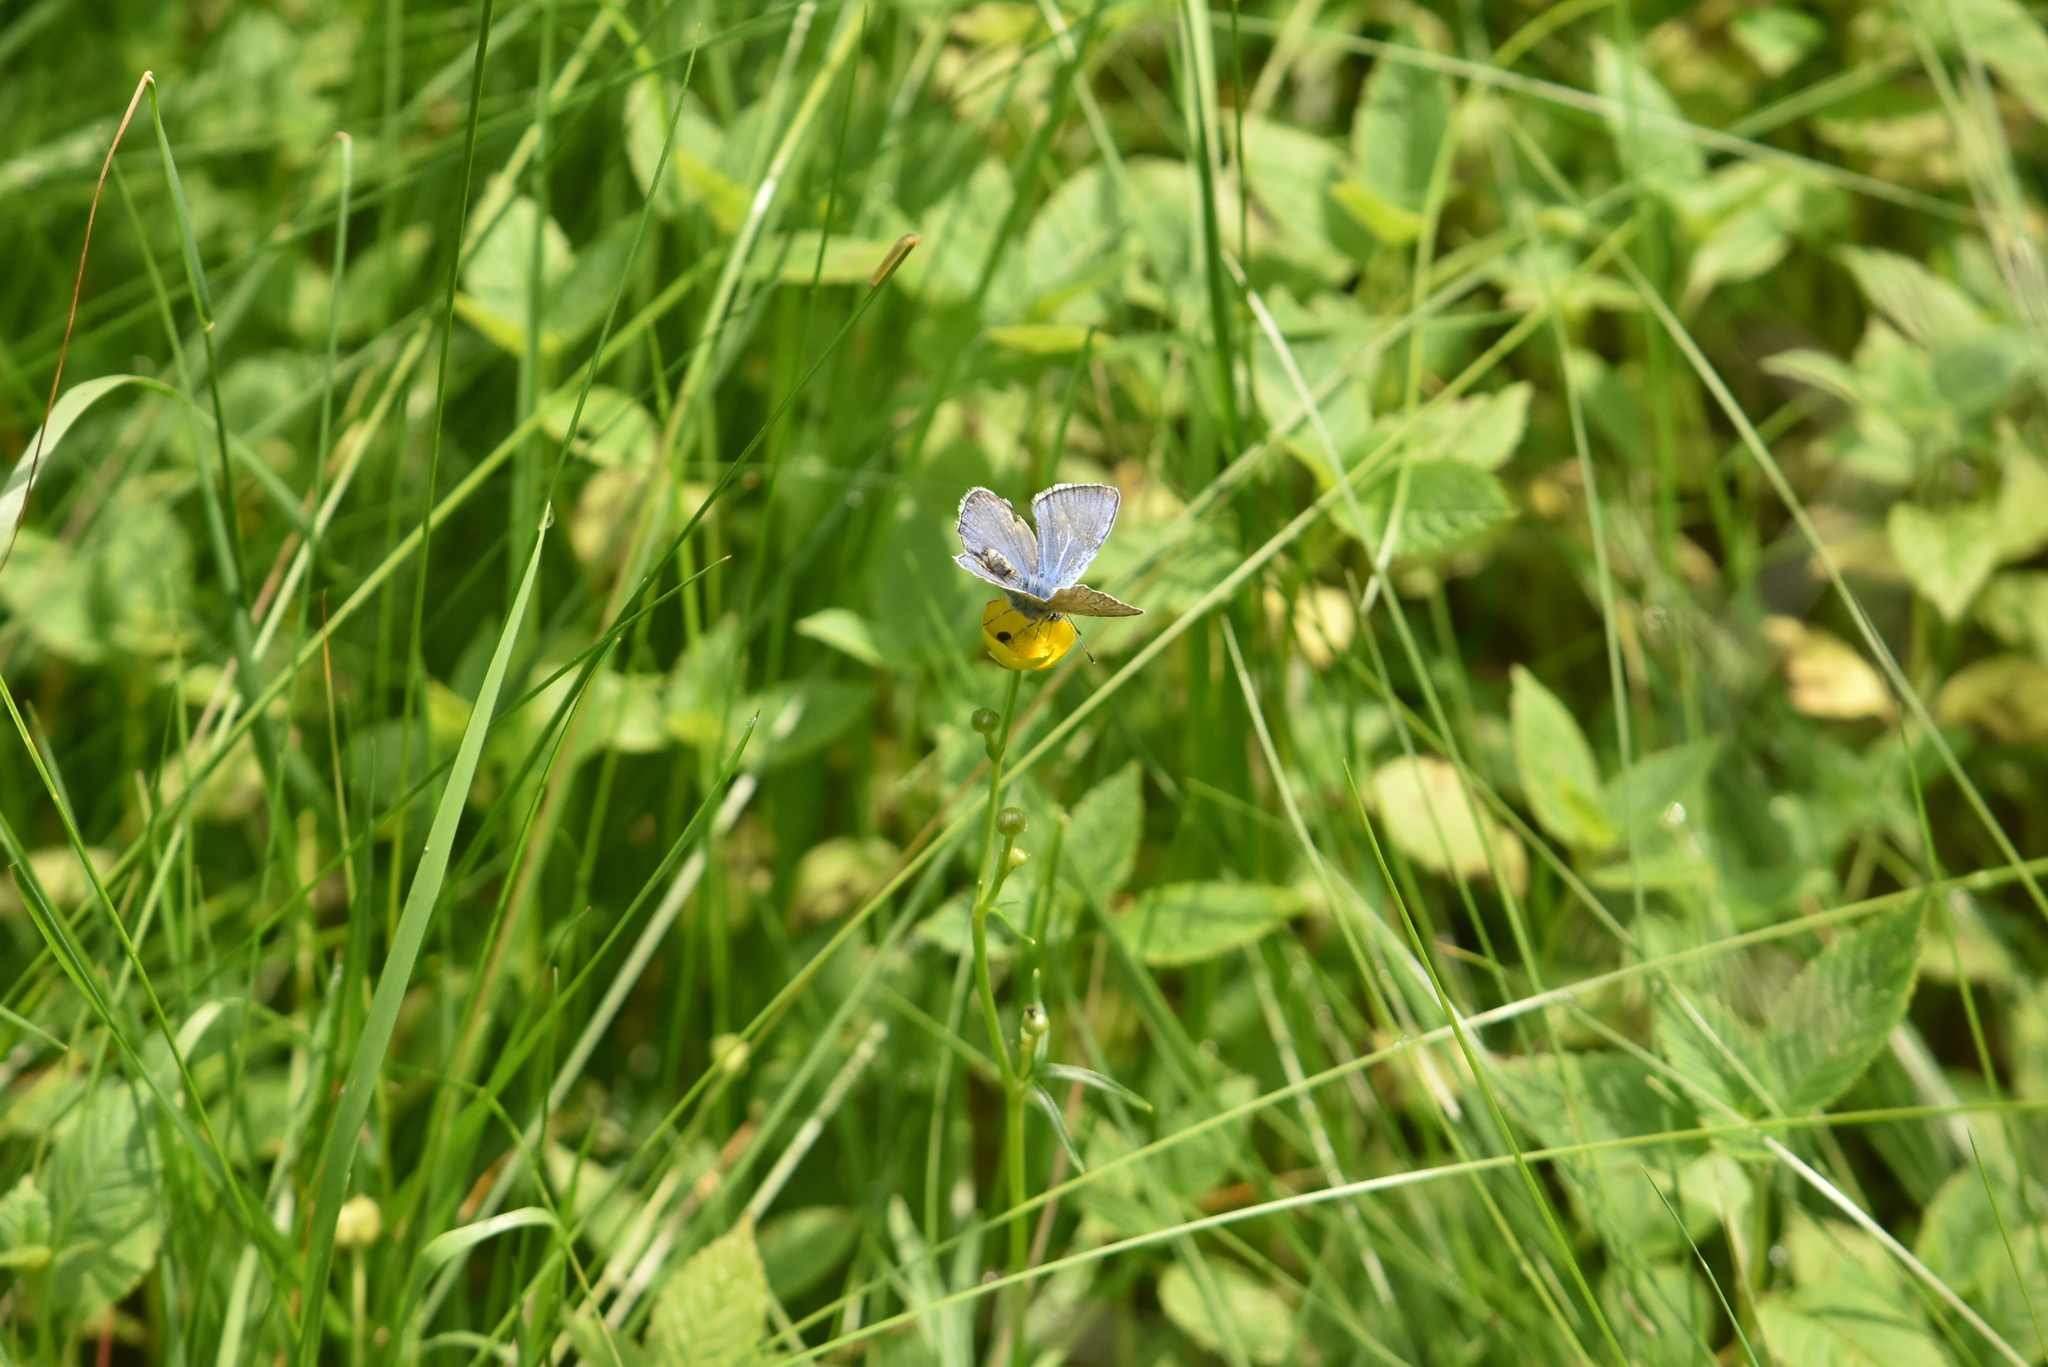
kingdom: Animalia
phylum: Arthropoda
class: Insecta
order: Lepidoptera
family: Lycaenidae
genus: Cyaniris
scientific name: Cyaniris semiargus
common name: Mazarine blue
